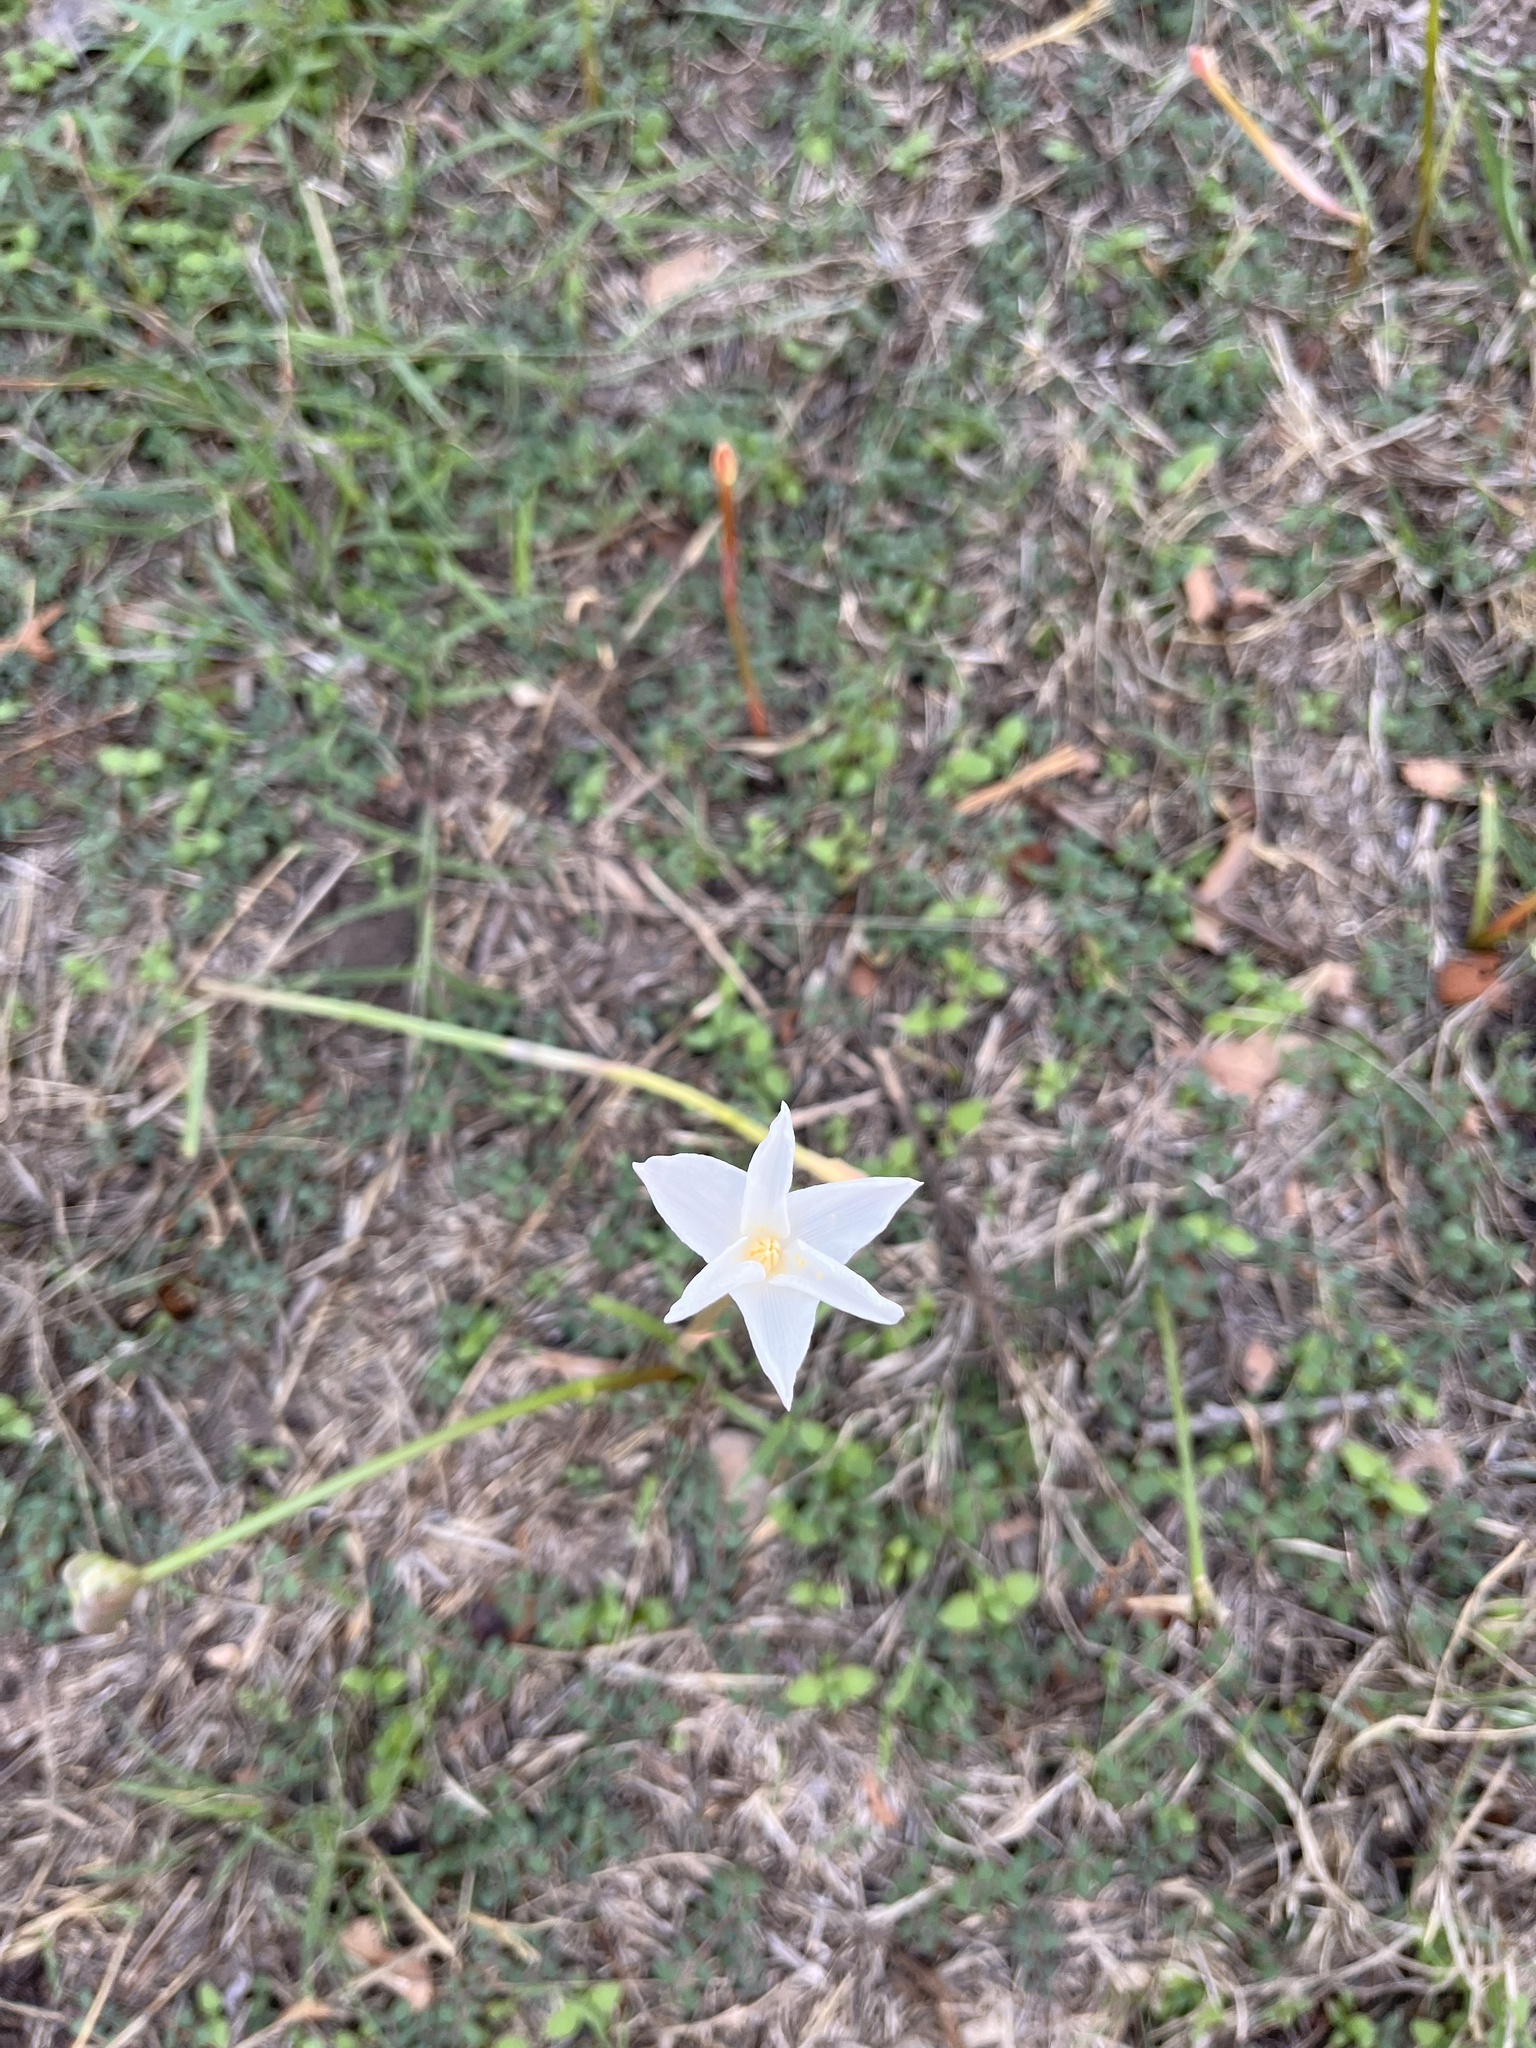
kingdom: Plantae
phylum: Tracheophyta
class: Liliopsida
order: Asparagales
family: Amaryllidaceae
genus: Zephyranthes
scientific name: Zephyranthes chlorosolen
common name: Evening rain-lily
